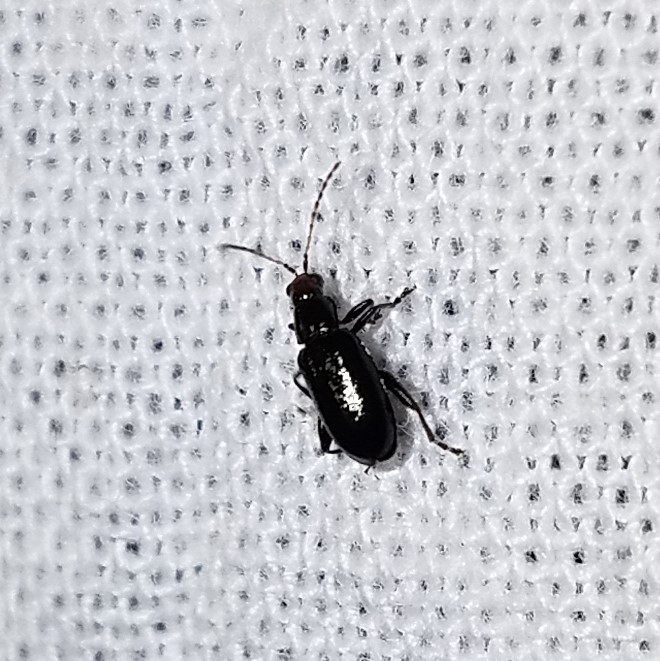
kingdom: Animalia
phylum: Arthropoda
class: Insecta
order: Coleoptera
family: Chrysomelidae
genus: Systena
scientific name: Systena frontalis
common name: Red-headed flea beetle
